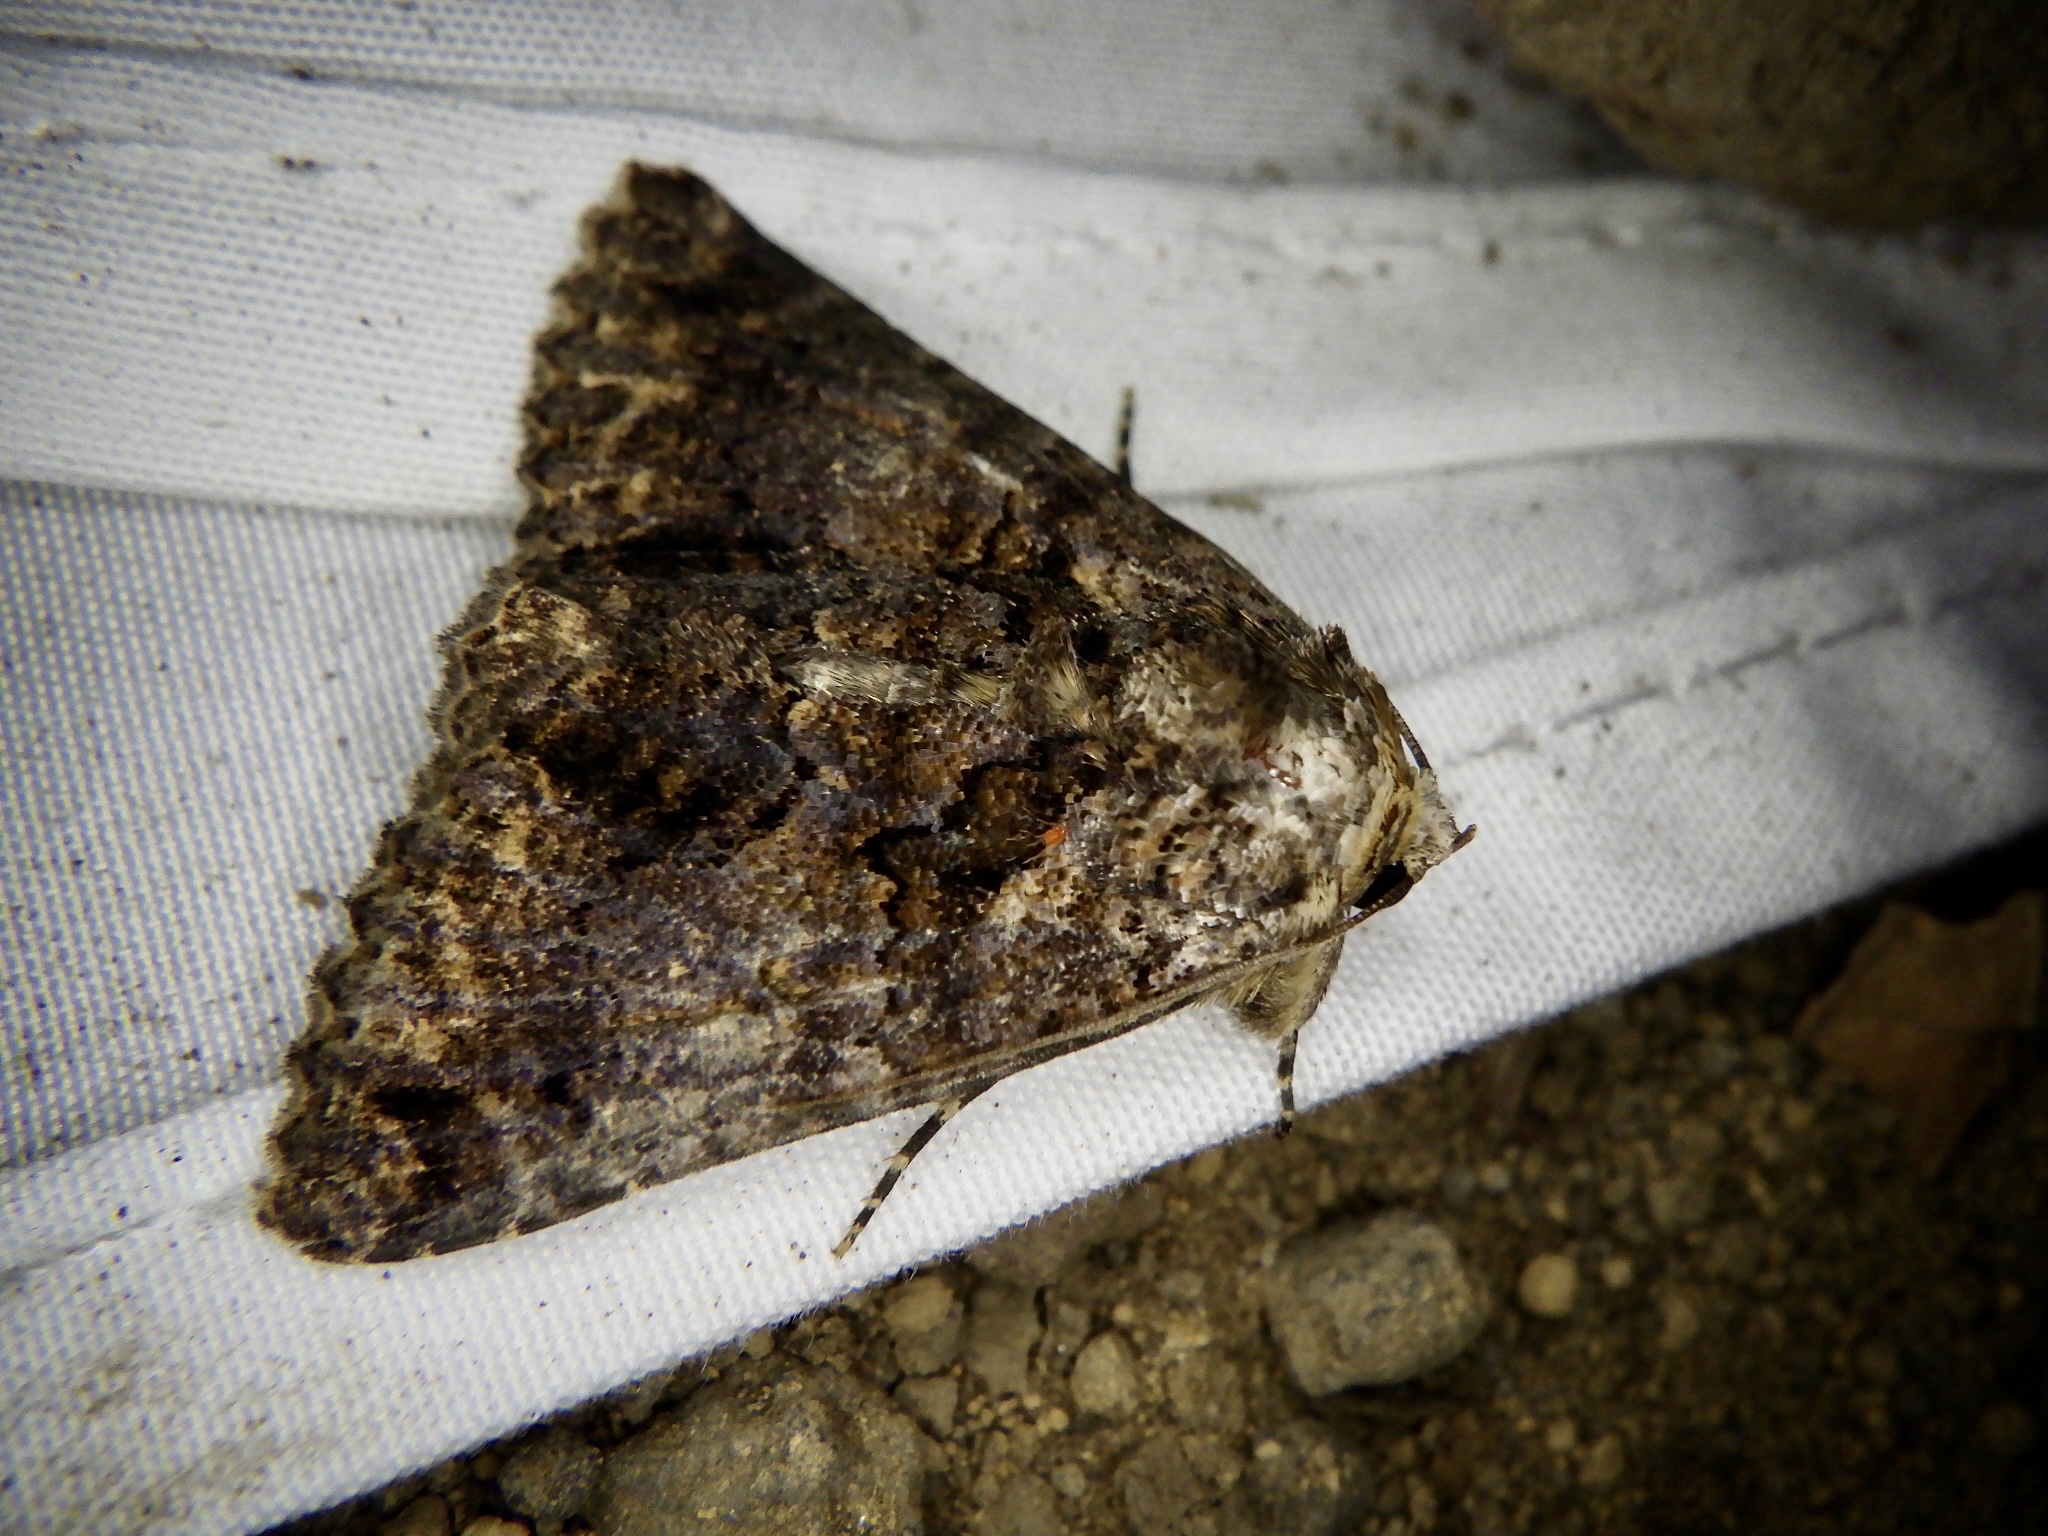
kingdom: Animalia
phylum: Arthropoda
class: Insecta
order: Lepidoptera
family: Erebidae
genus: Erygia
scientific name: Erygia apicalis
